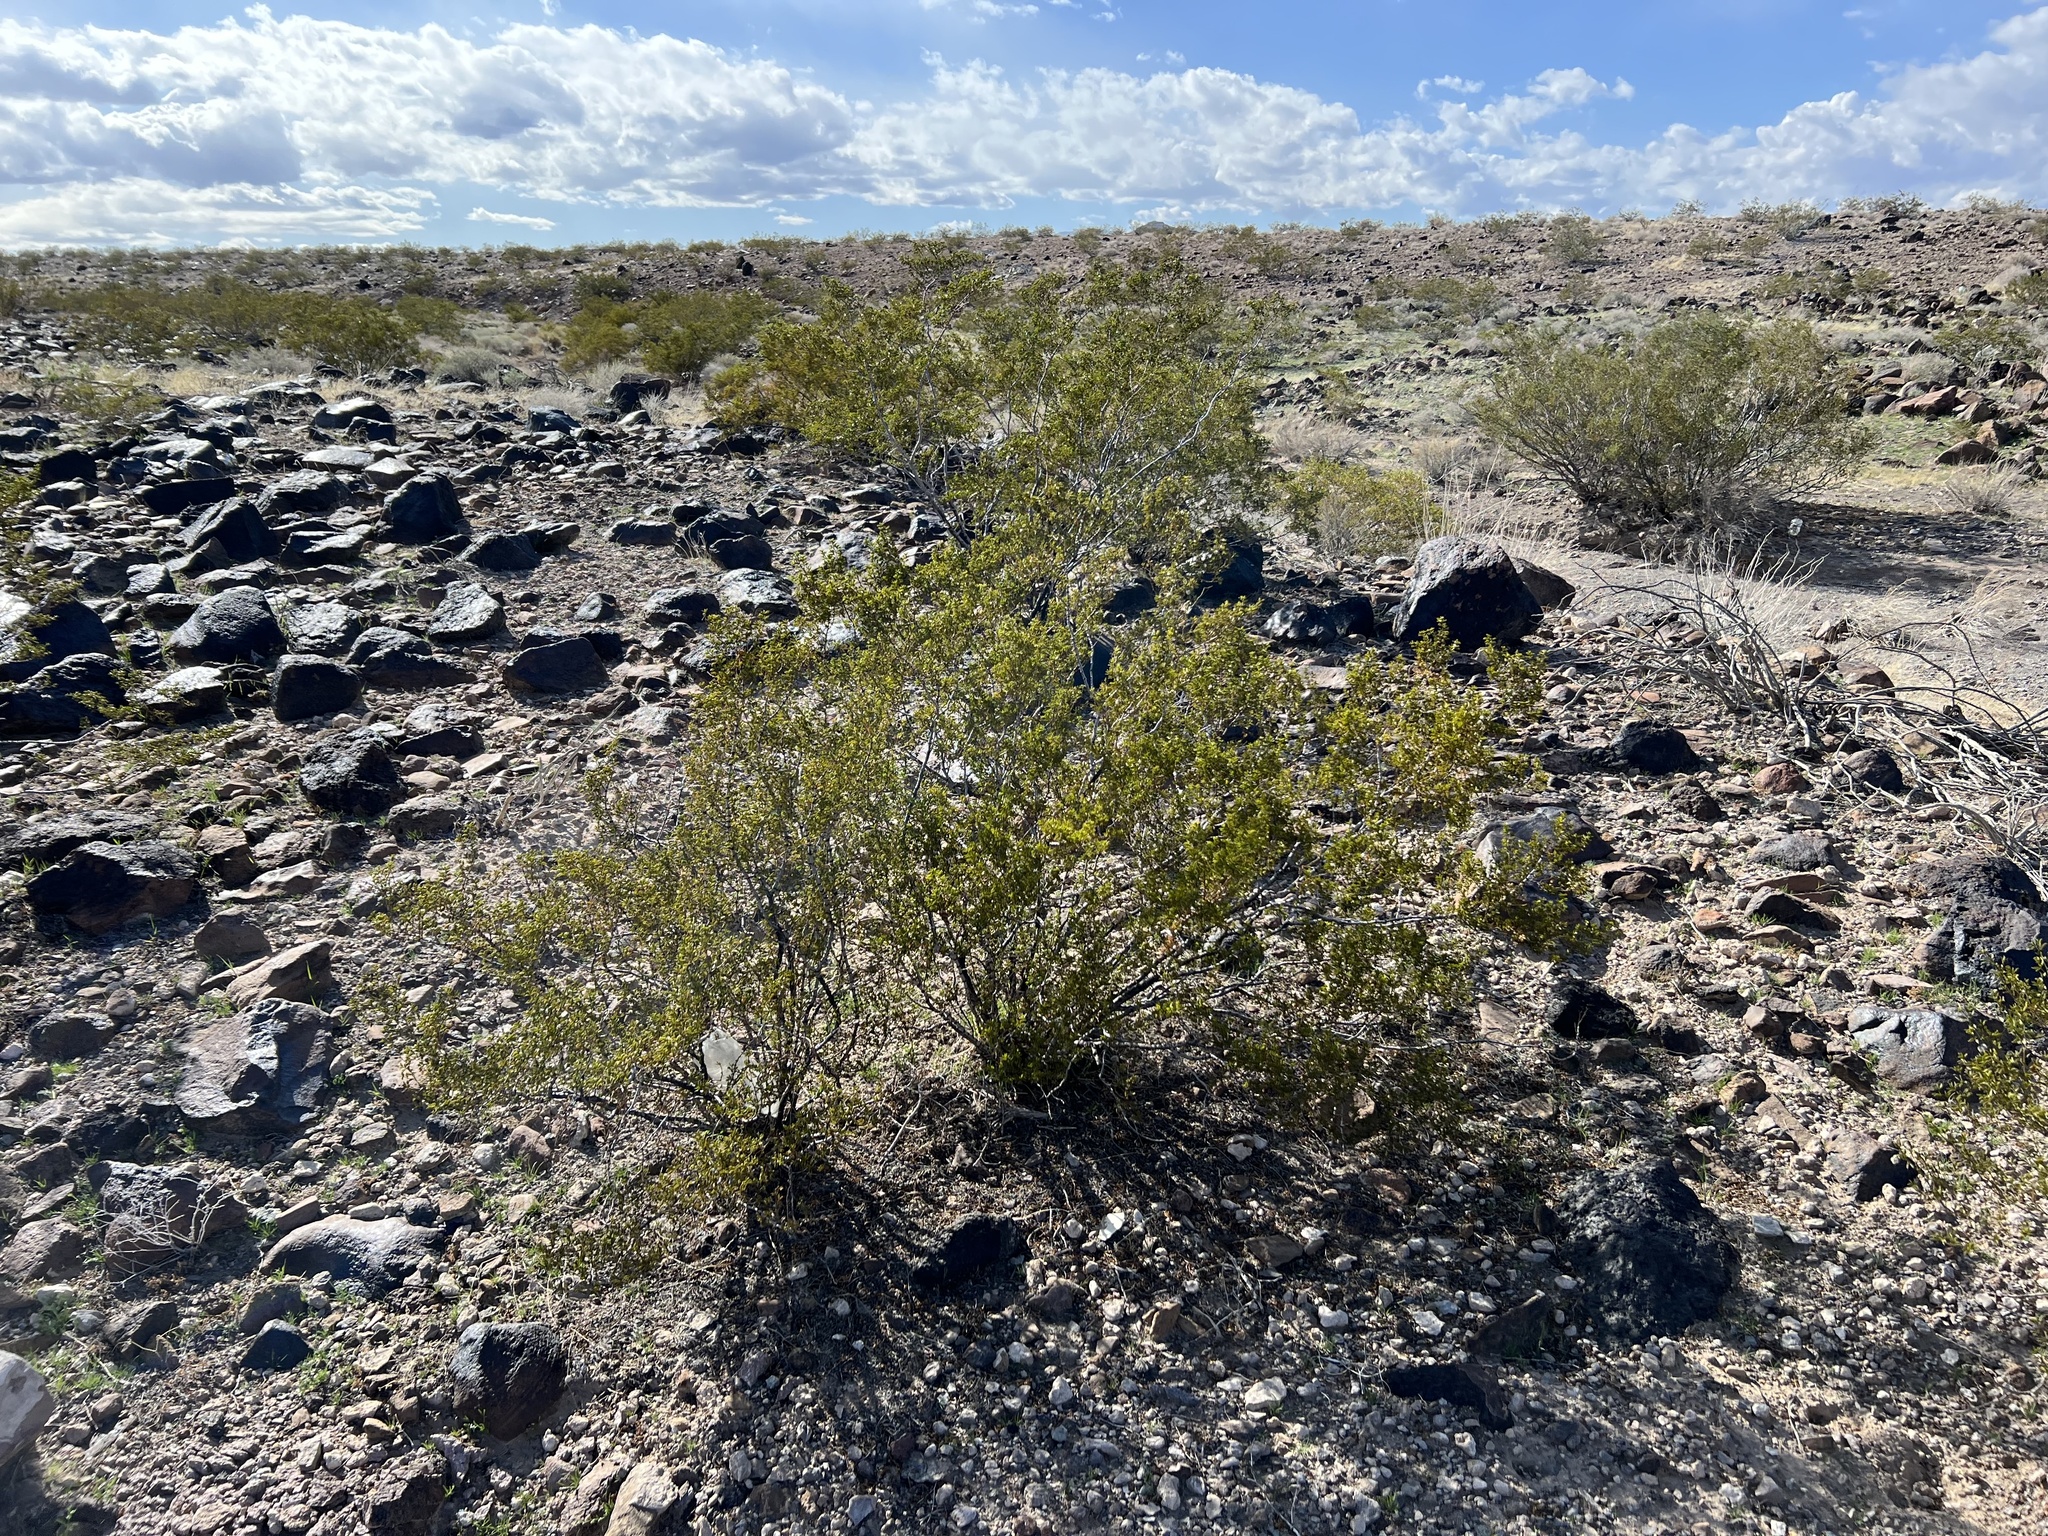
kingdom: Plantae
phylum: Tracheophyta
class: Magnoliopsida
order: Zygophyllales
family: Zygophyllaceae
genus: Larrea
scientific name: Larrea tridentata
